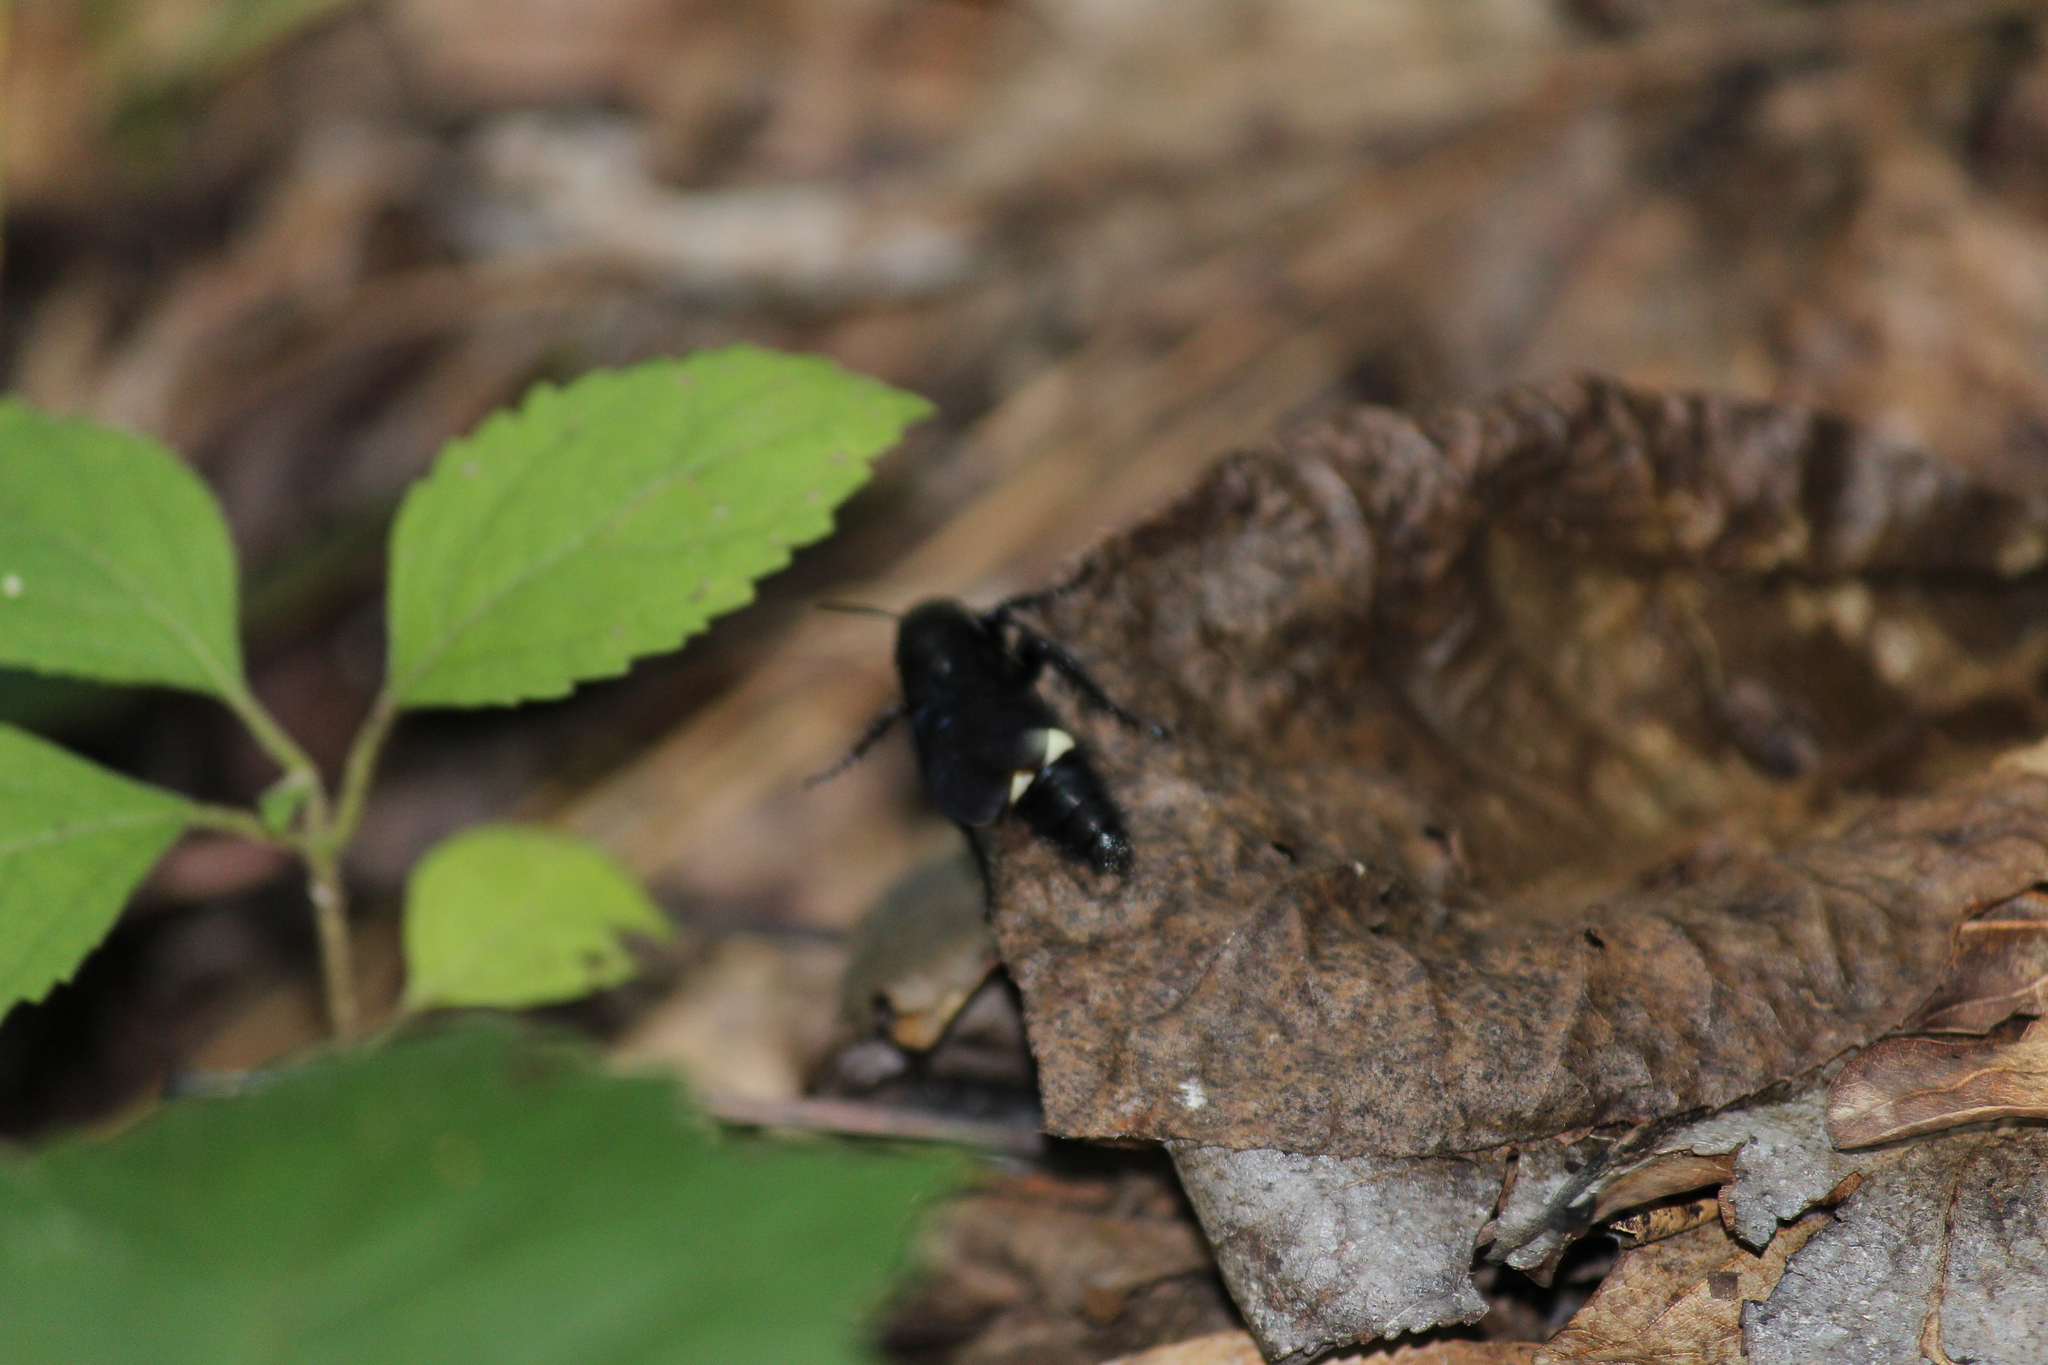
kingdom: Animalia
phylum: Arthropoda
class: Insecta
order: Hymenoptera
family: Scoliidae
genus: Scolia
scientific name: Scolia bicincta
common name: Double-banded scoliid wasp
